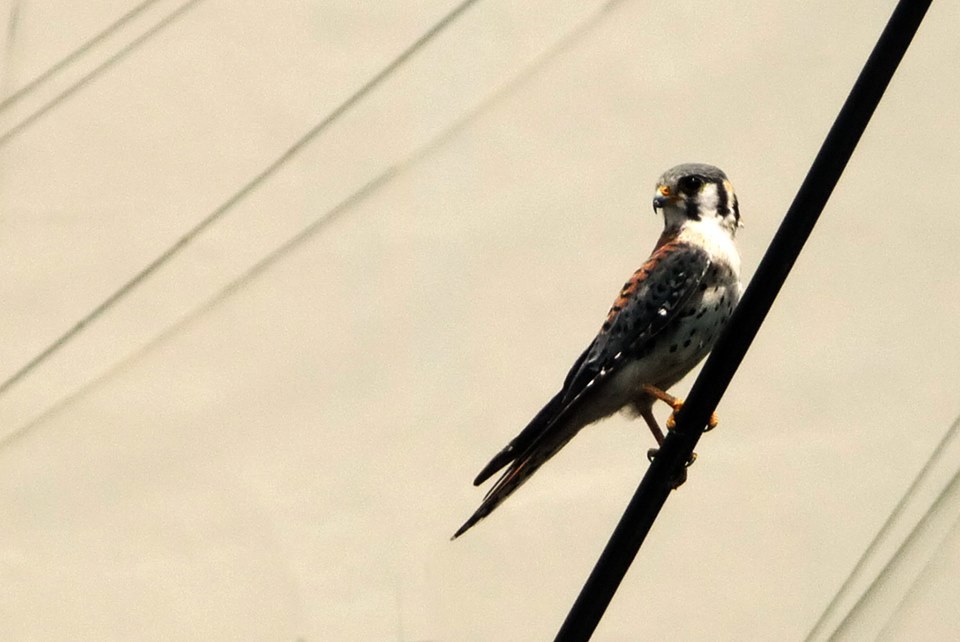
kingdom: Animalia
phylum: Chordata
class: Aves
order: Falconiformes
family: Falconidae
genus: Falco
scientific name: Falco sparverius
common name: American kestrel
